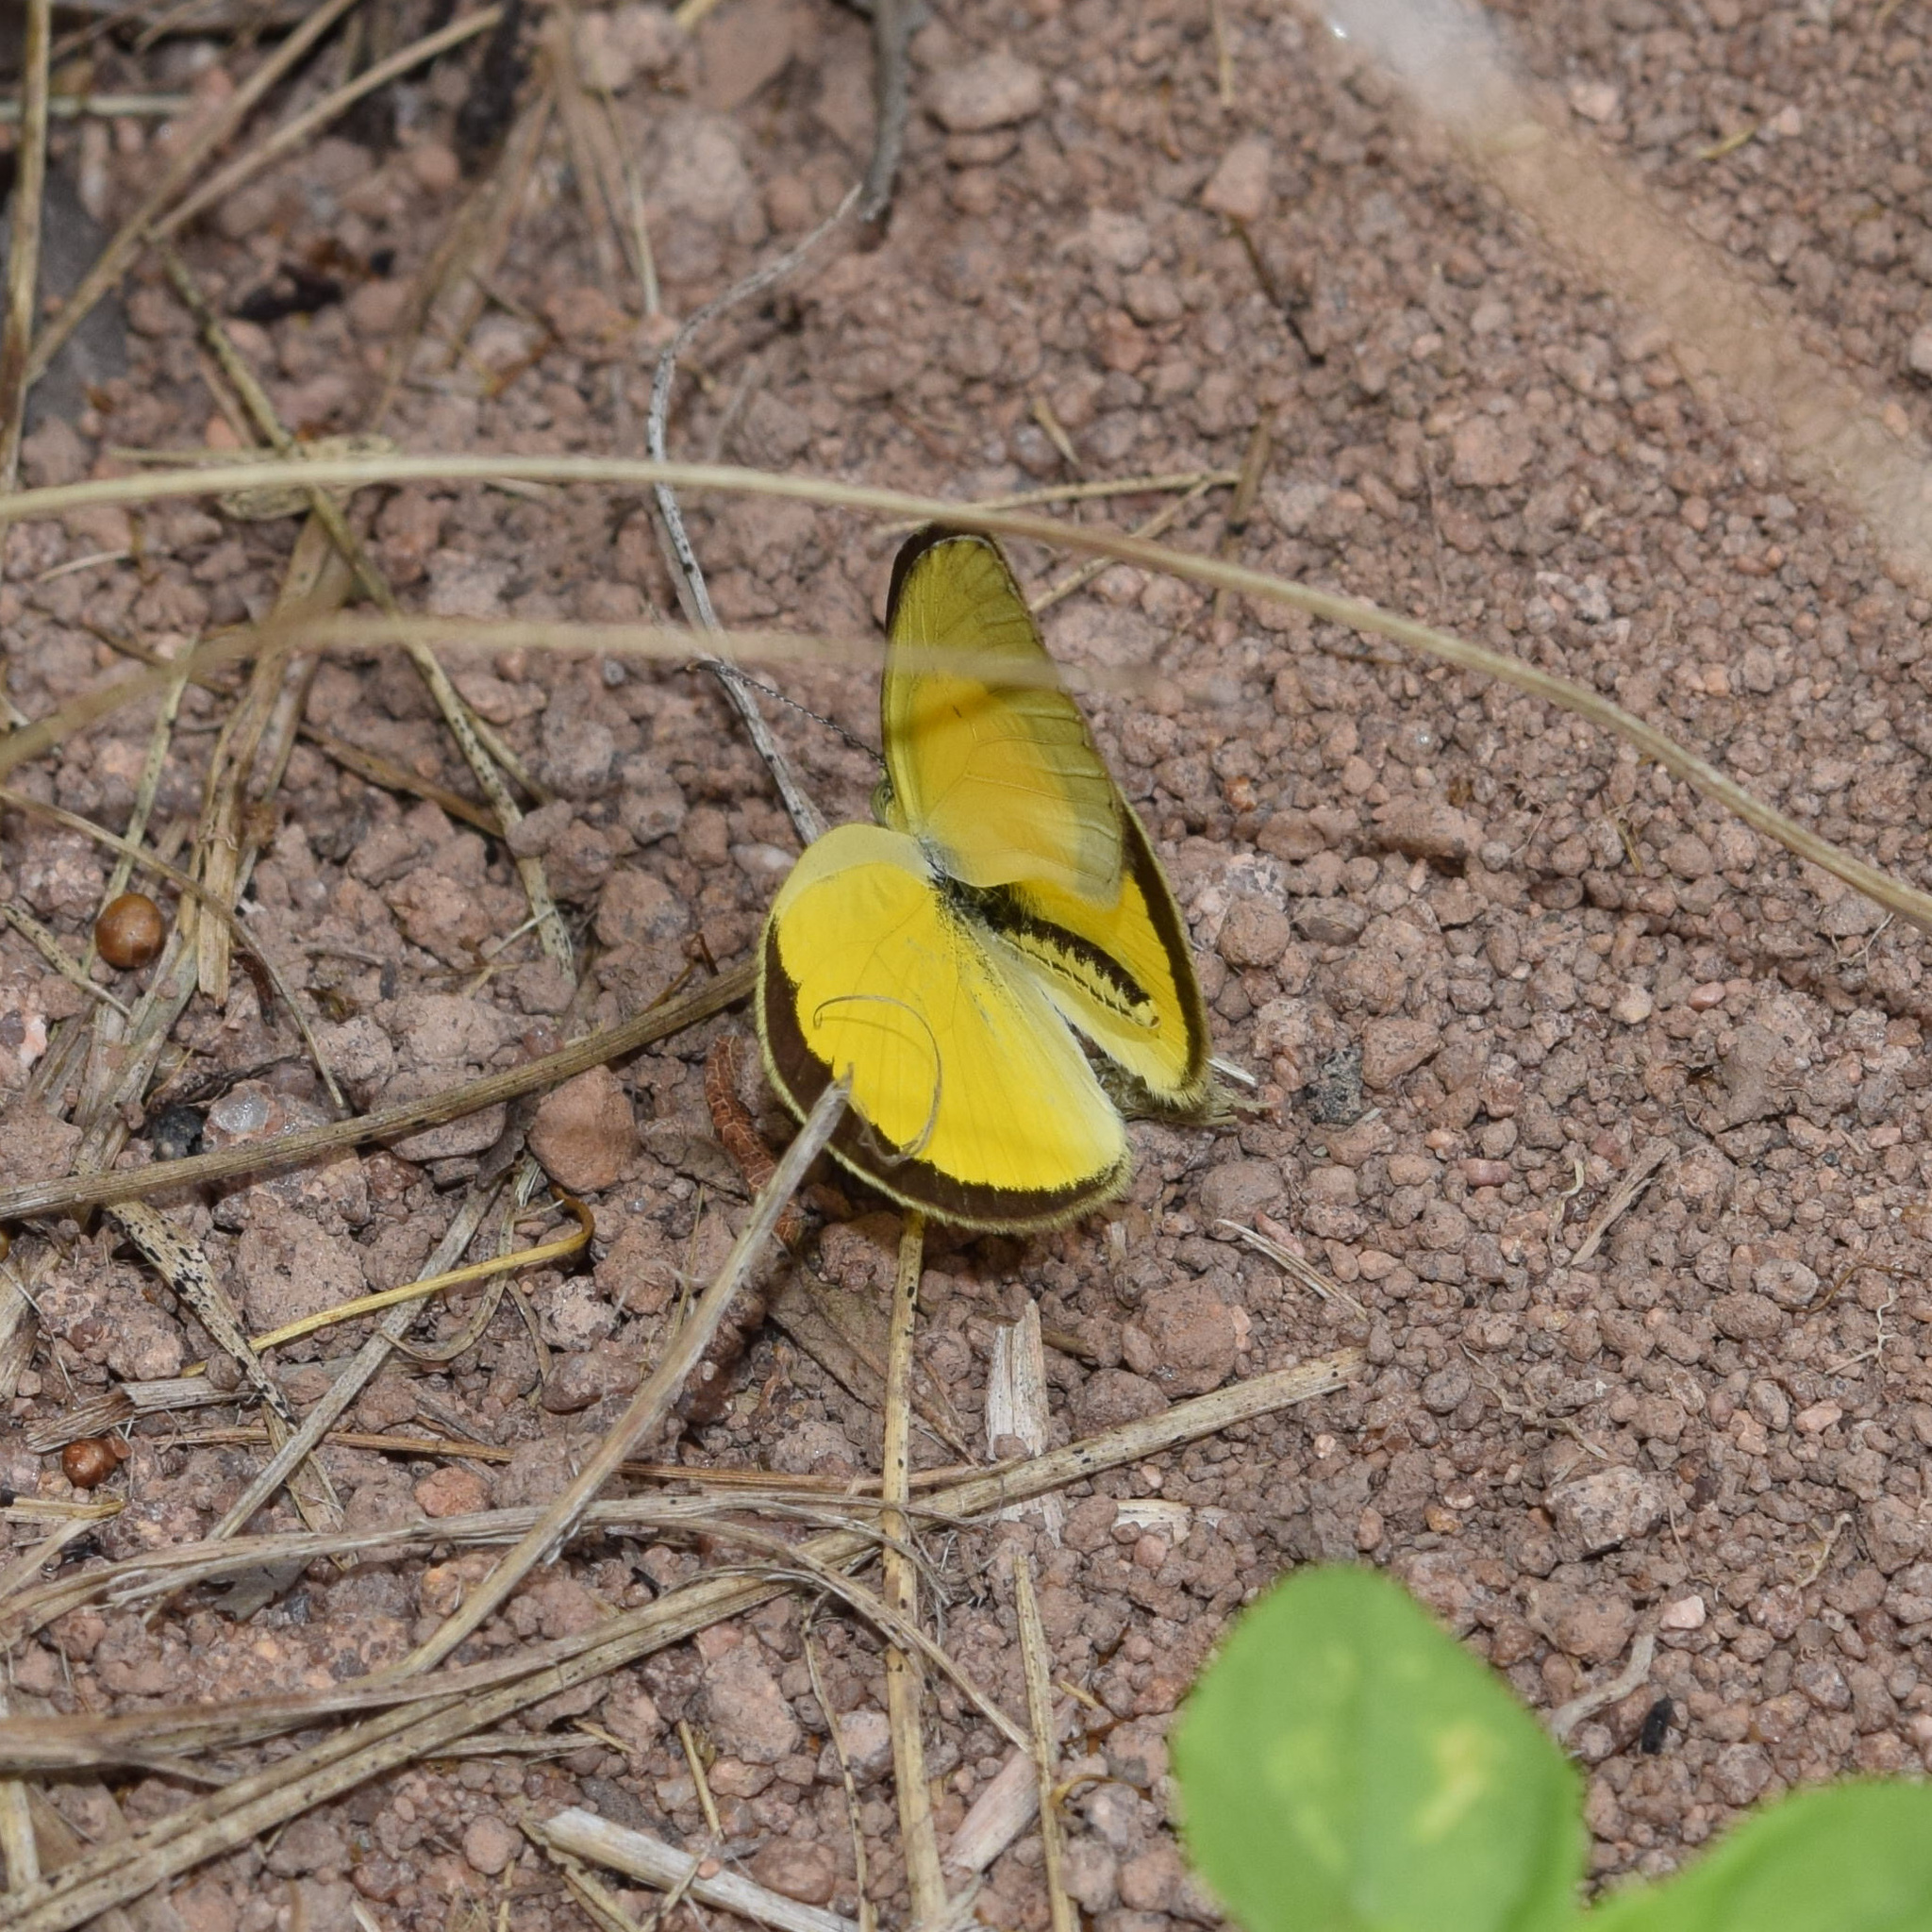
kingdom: Animalia
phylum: Arthropoda
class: Insecta
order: Lepidoptera
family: Pieridae
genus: Eurema
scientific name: Eurema brigitta
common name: Small grass yellow
